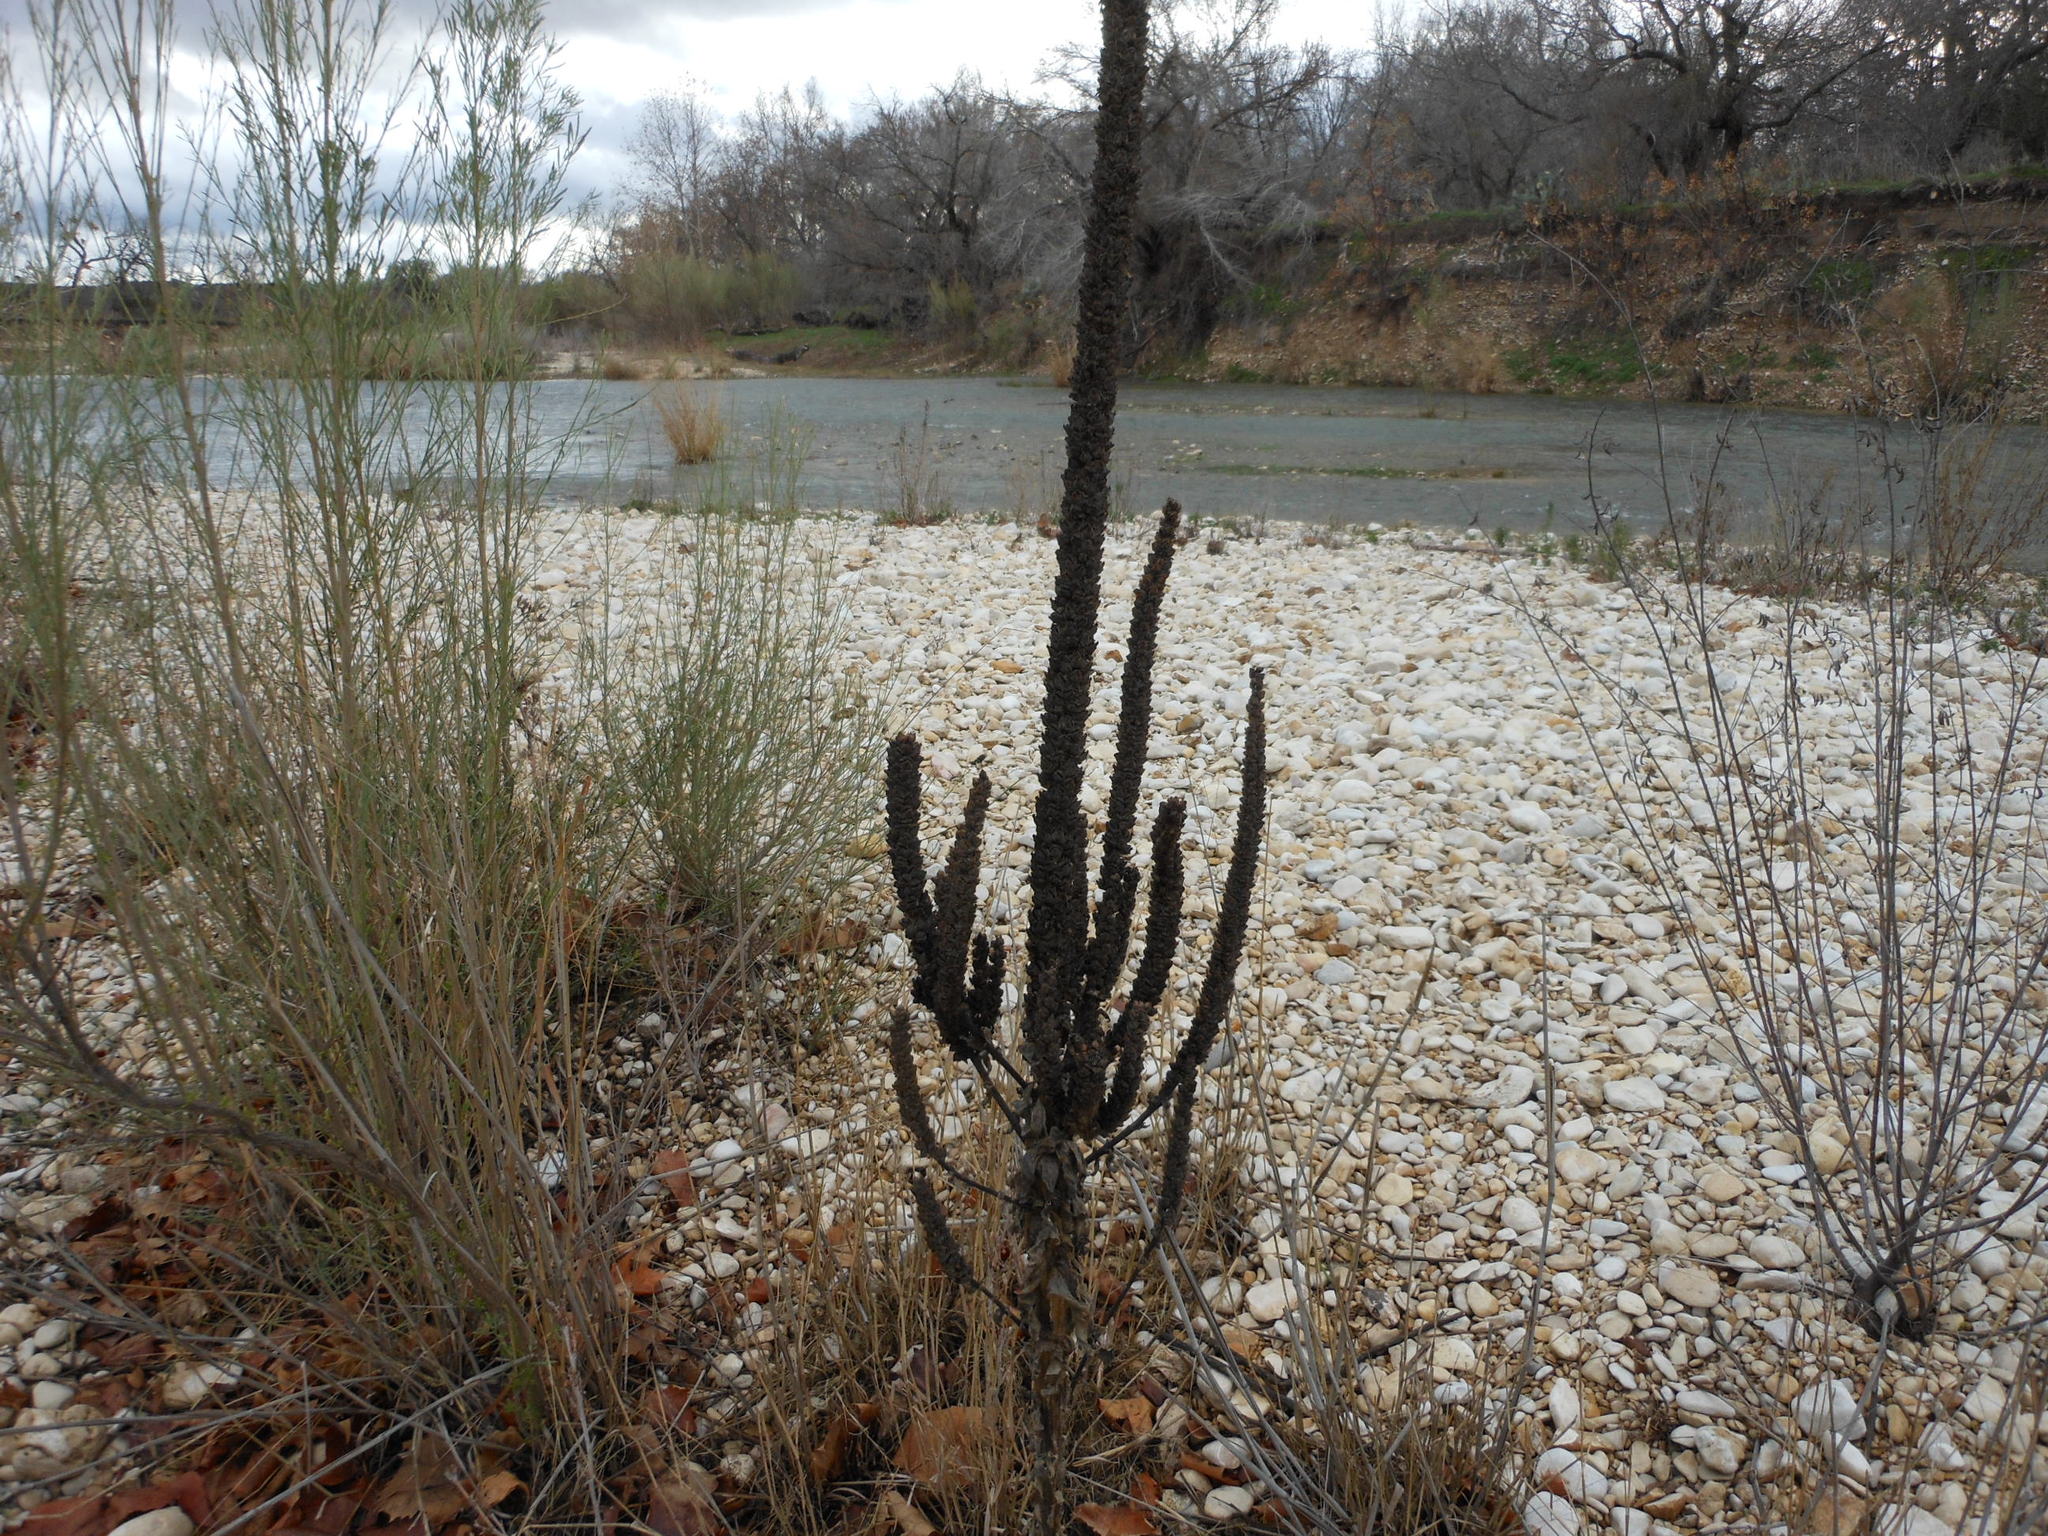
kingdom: Plantae
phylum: Tracheophyta
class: Magnoliopsida
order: Lamiales
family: Scrophulariaceae
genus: Verbascum
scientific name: Verbascum thapsus
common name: Common mullein
